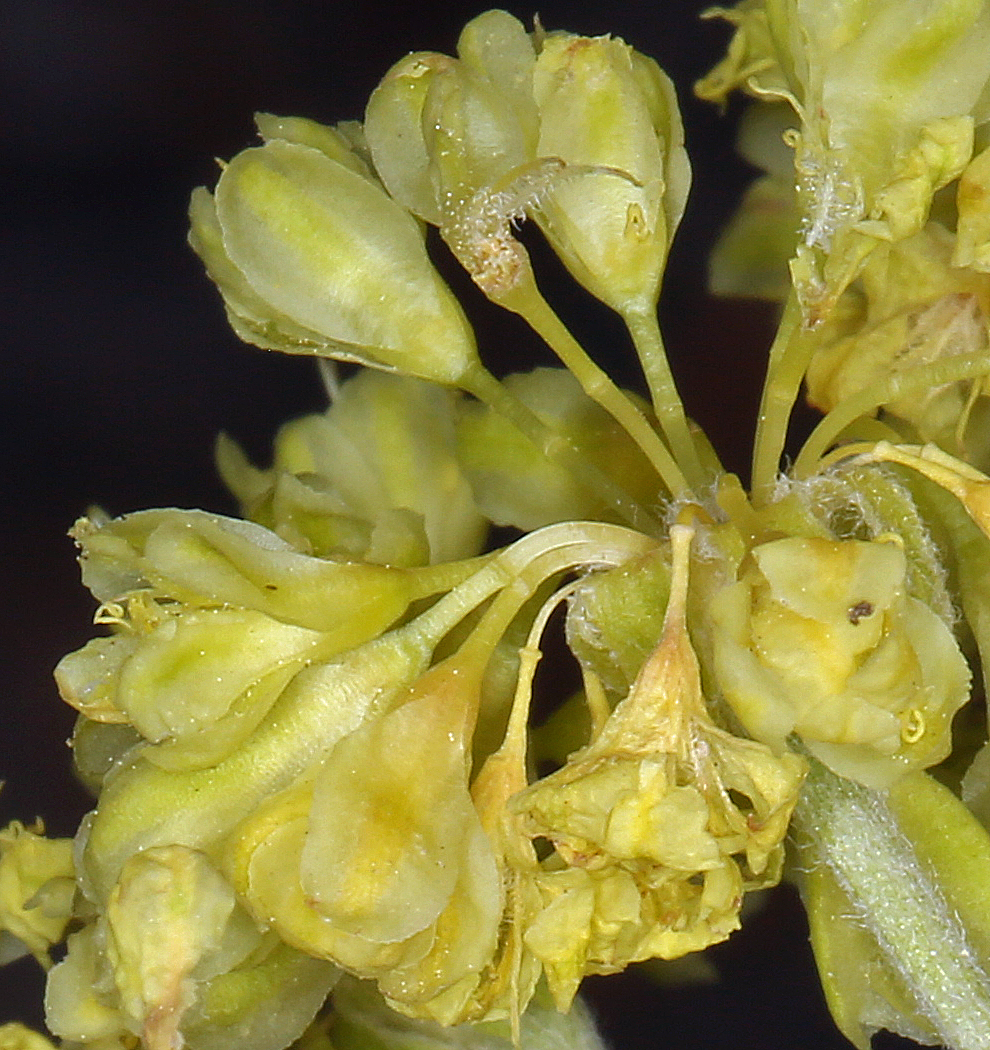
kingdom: Plantae
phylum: Tracheophyta
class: Magnoliopsida
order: Caryophyllales
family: Polygonaceae
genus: Eriogonum
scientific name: Eriogonum umbellatum
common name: Sulfur-buckwheat
